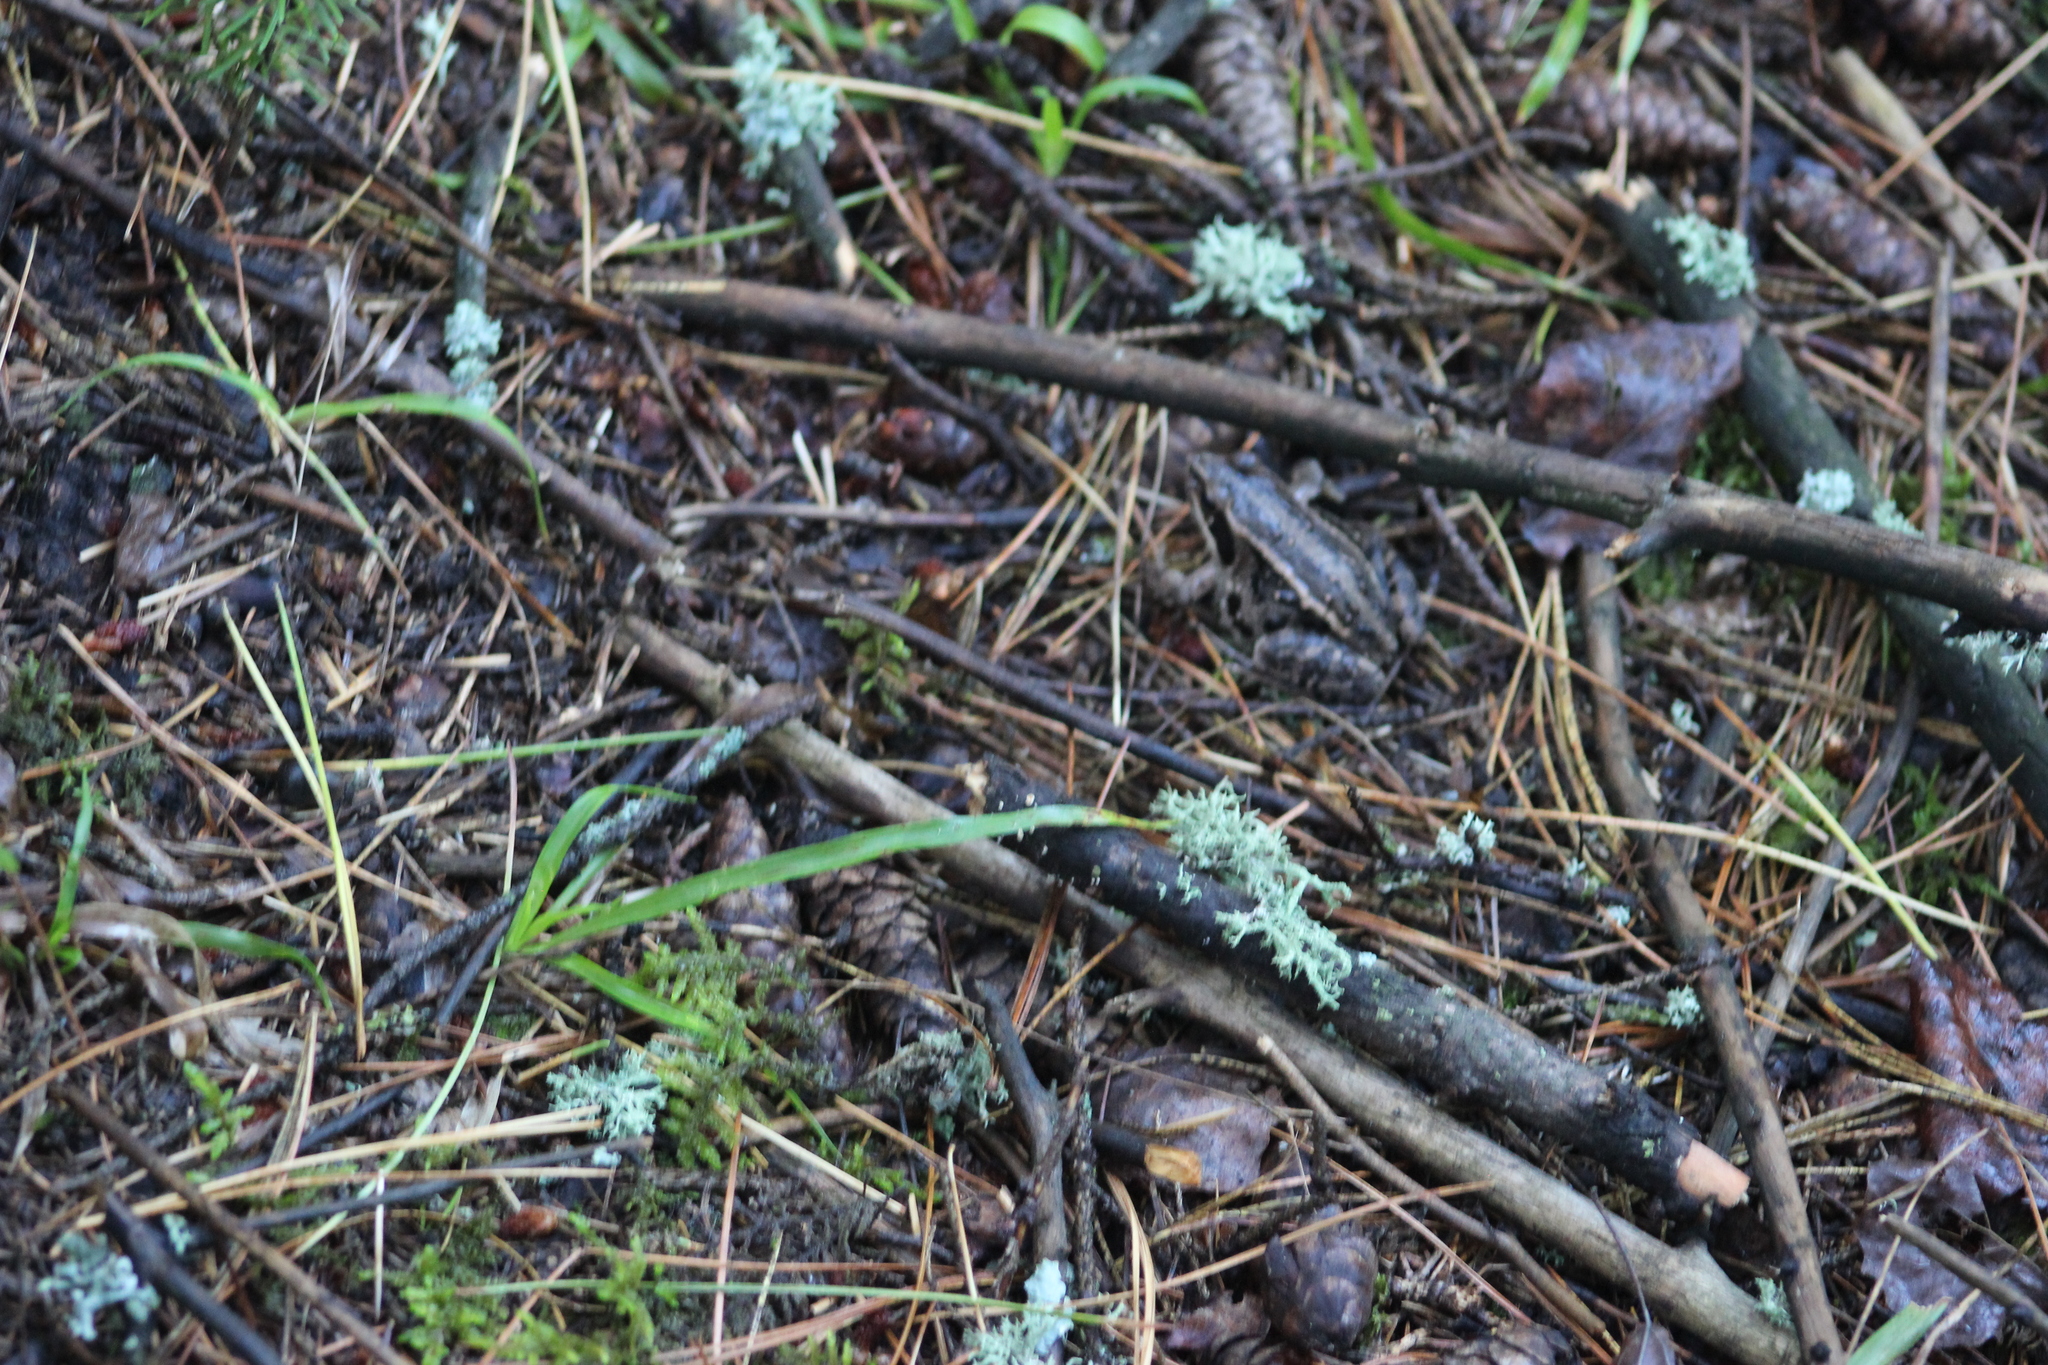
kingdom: Animalia
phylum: Chordata
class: Amphibia
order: Anura
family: Ranidae
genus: Rana
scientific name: Rana arvalis
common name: Moor frog
